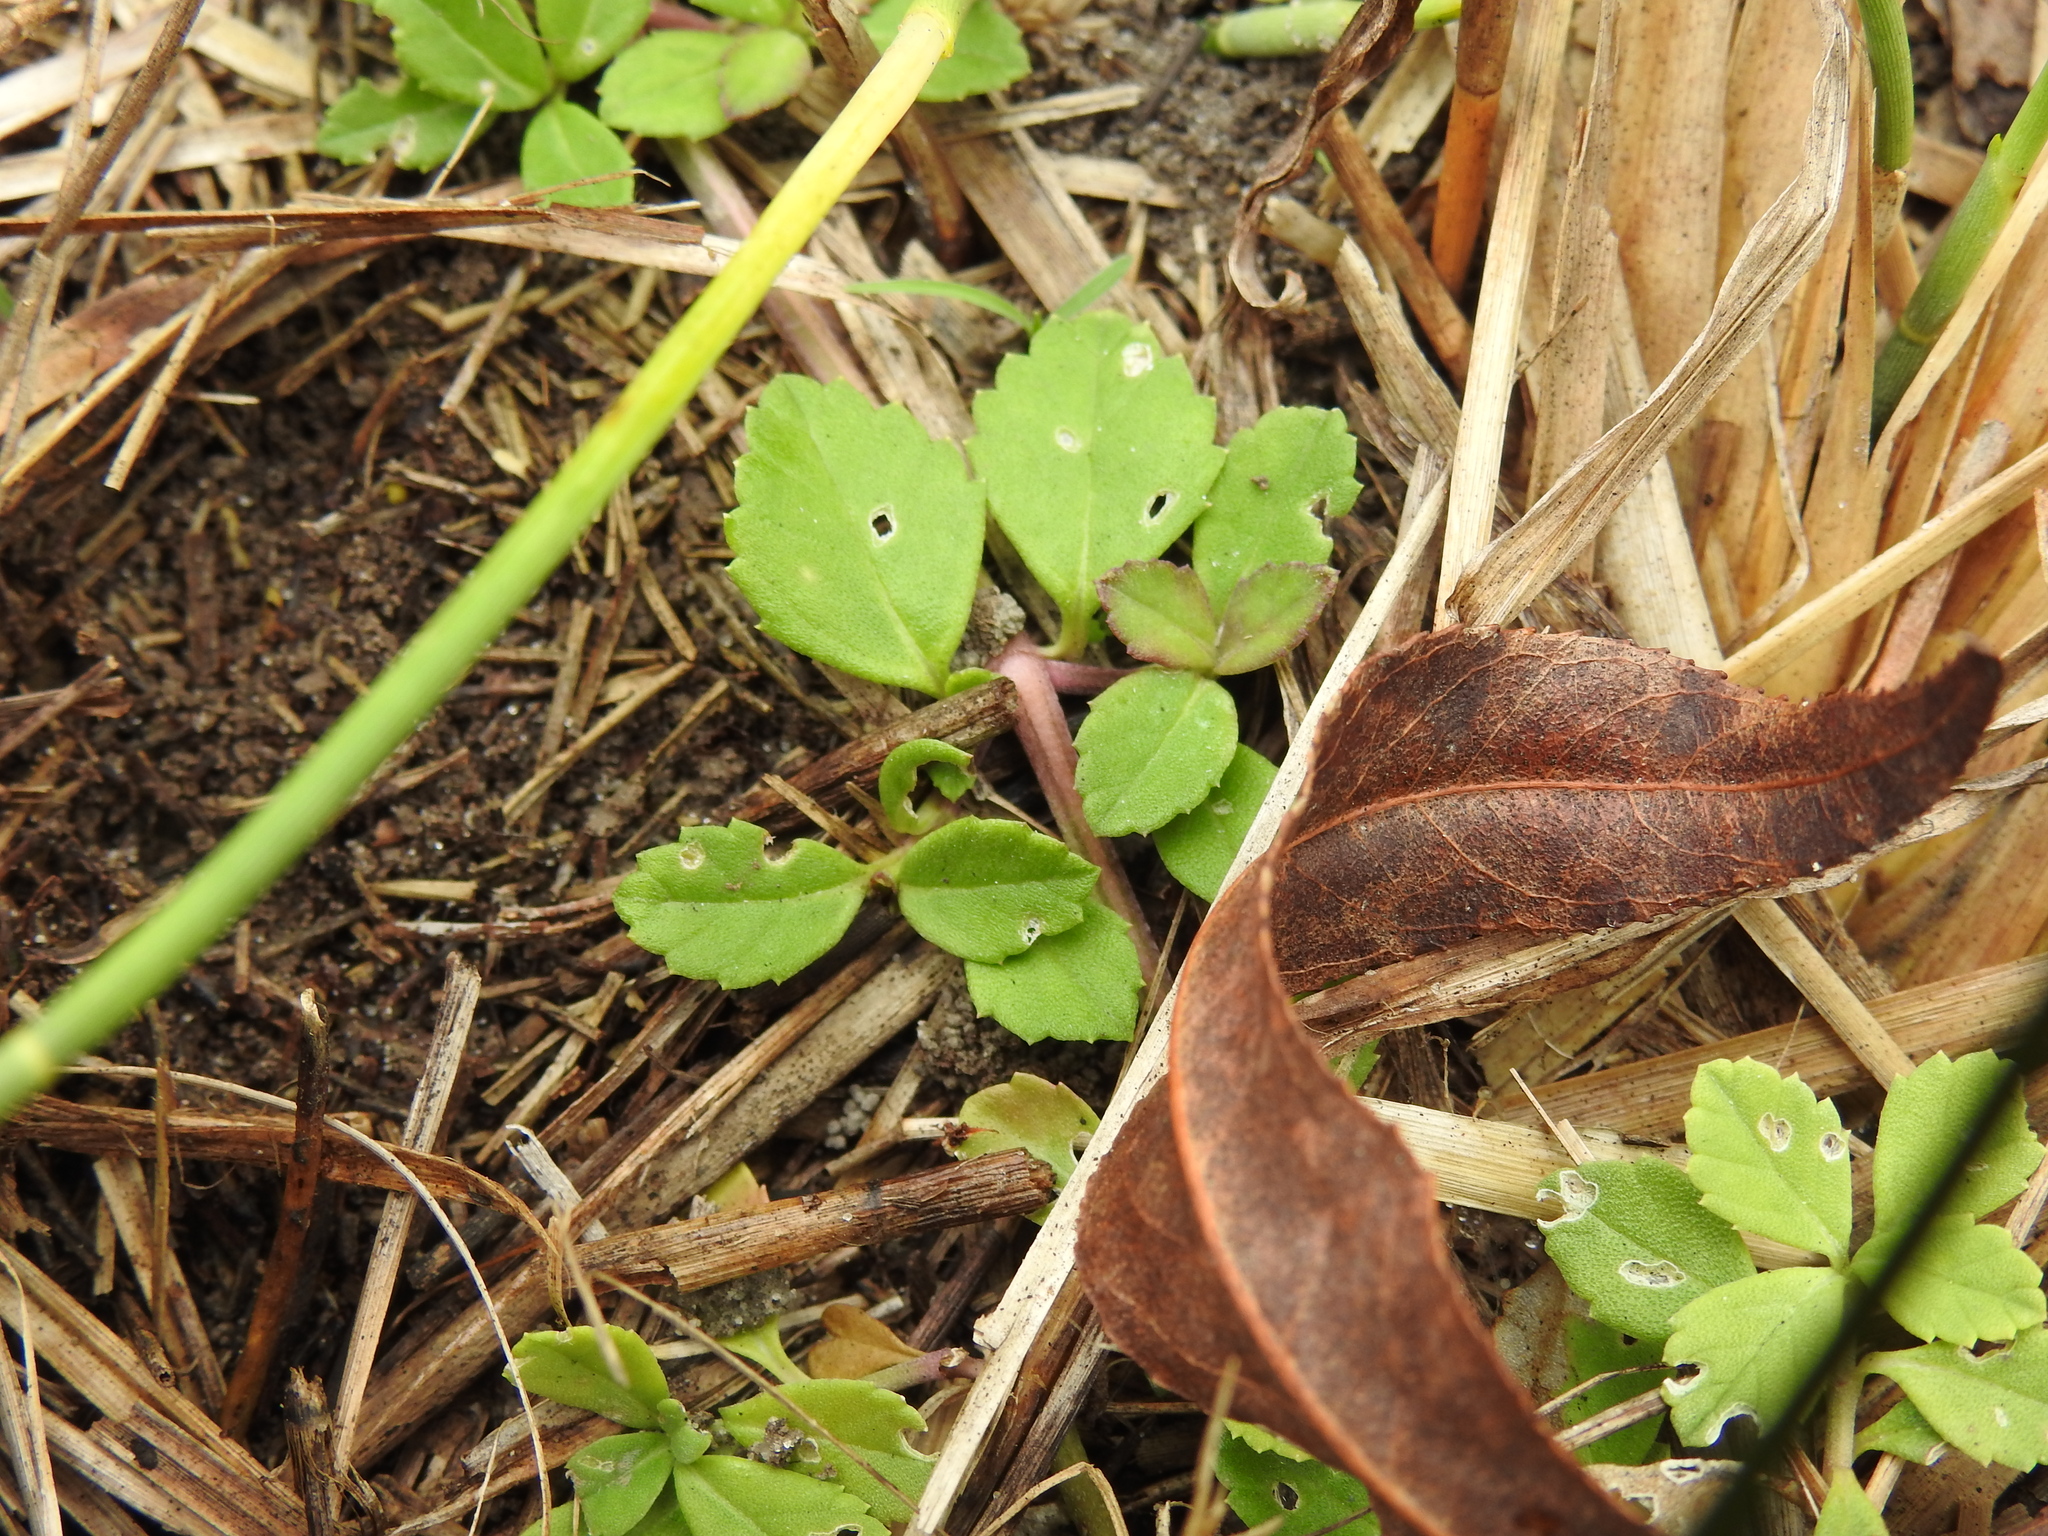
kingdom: Plantae
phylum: Tracheophyta
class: Magnoliopsida
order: Lamiales
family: Verbenaceae
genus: Phyla
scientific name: Phyla nodiflora
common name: Frogfruit
